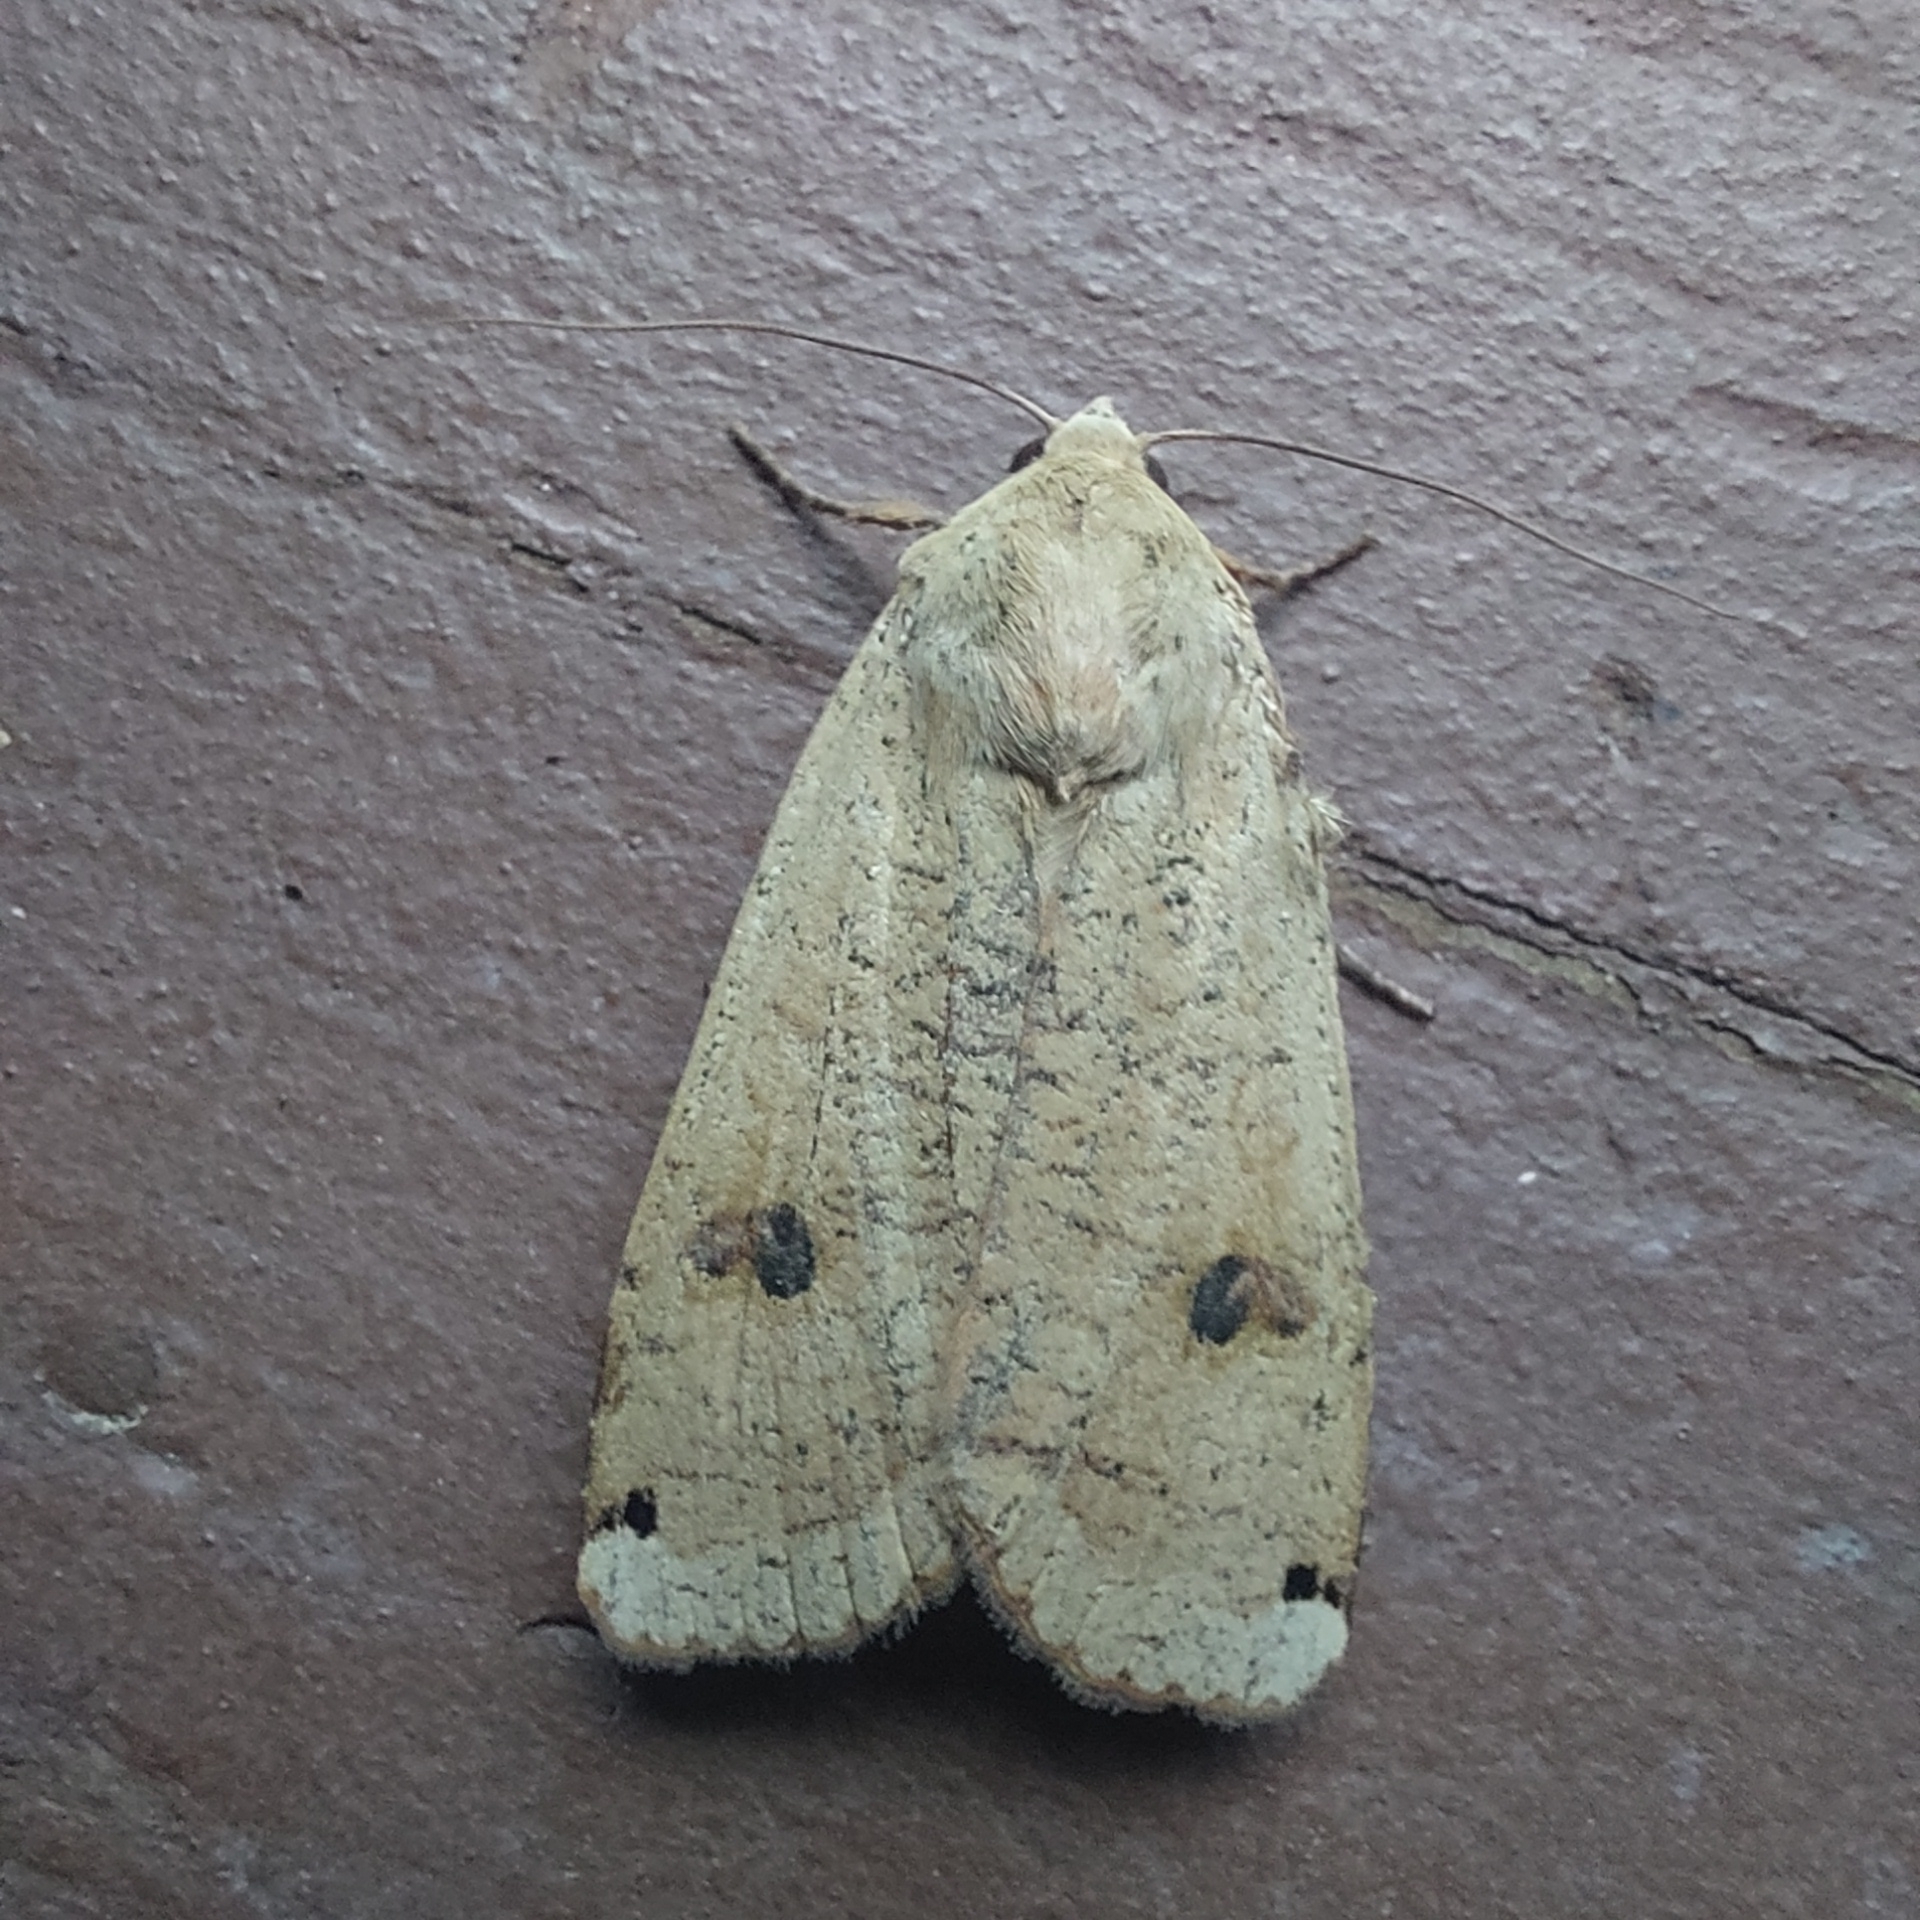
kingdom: Animalia
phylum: Arthropoda
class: Insecta
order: Lepidoptera
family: Noctuidae
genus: Noctua
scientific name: Noctua pronuba
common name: Large yellow underwing
